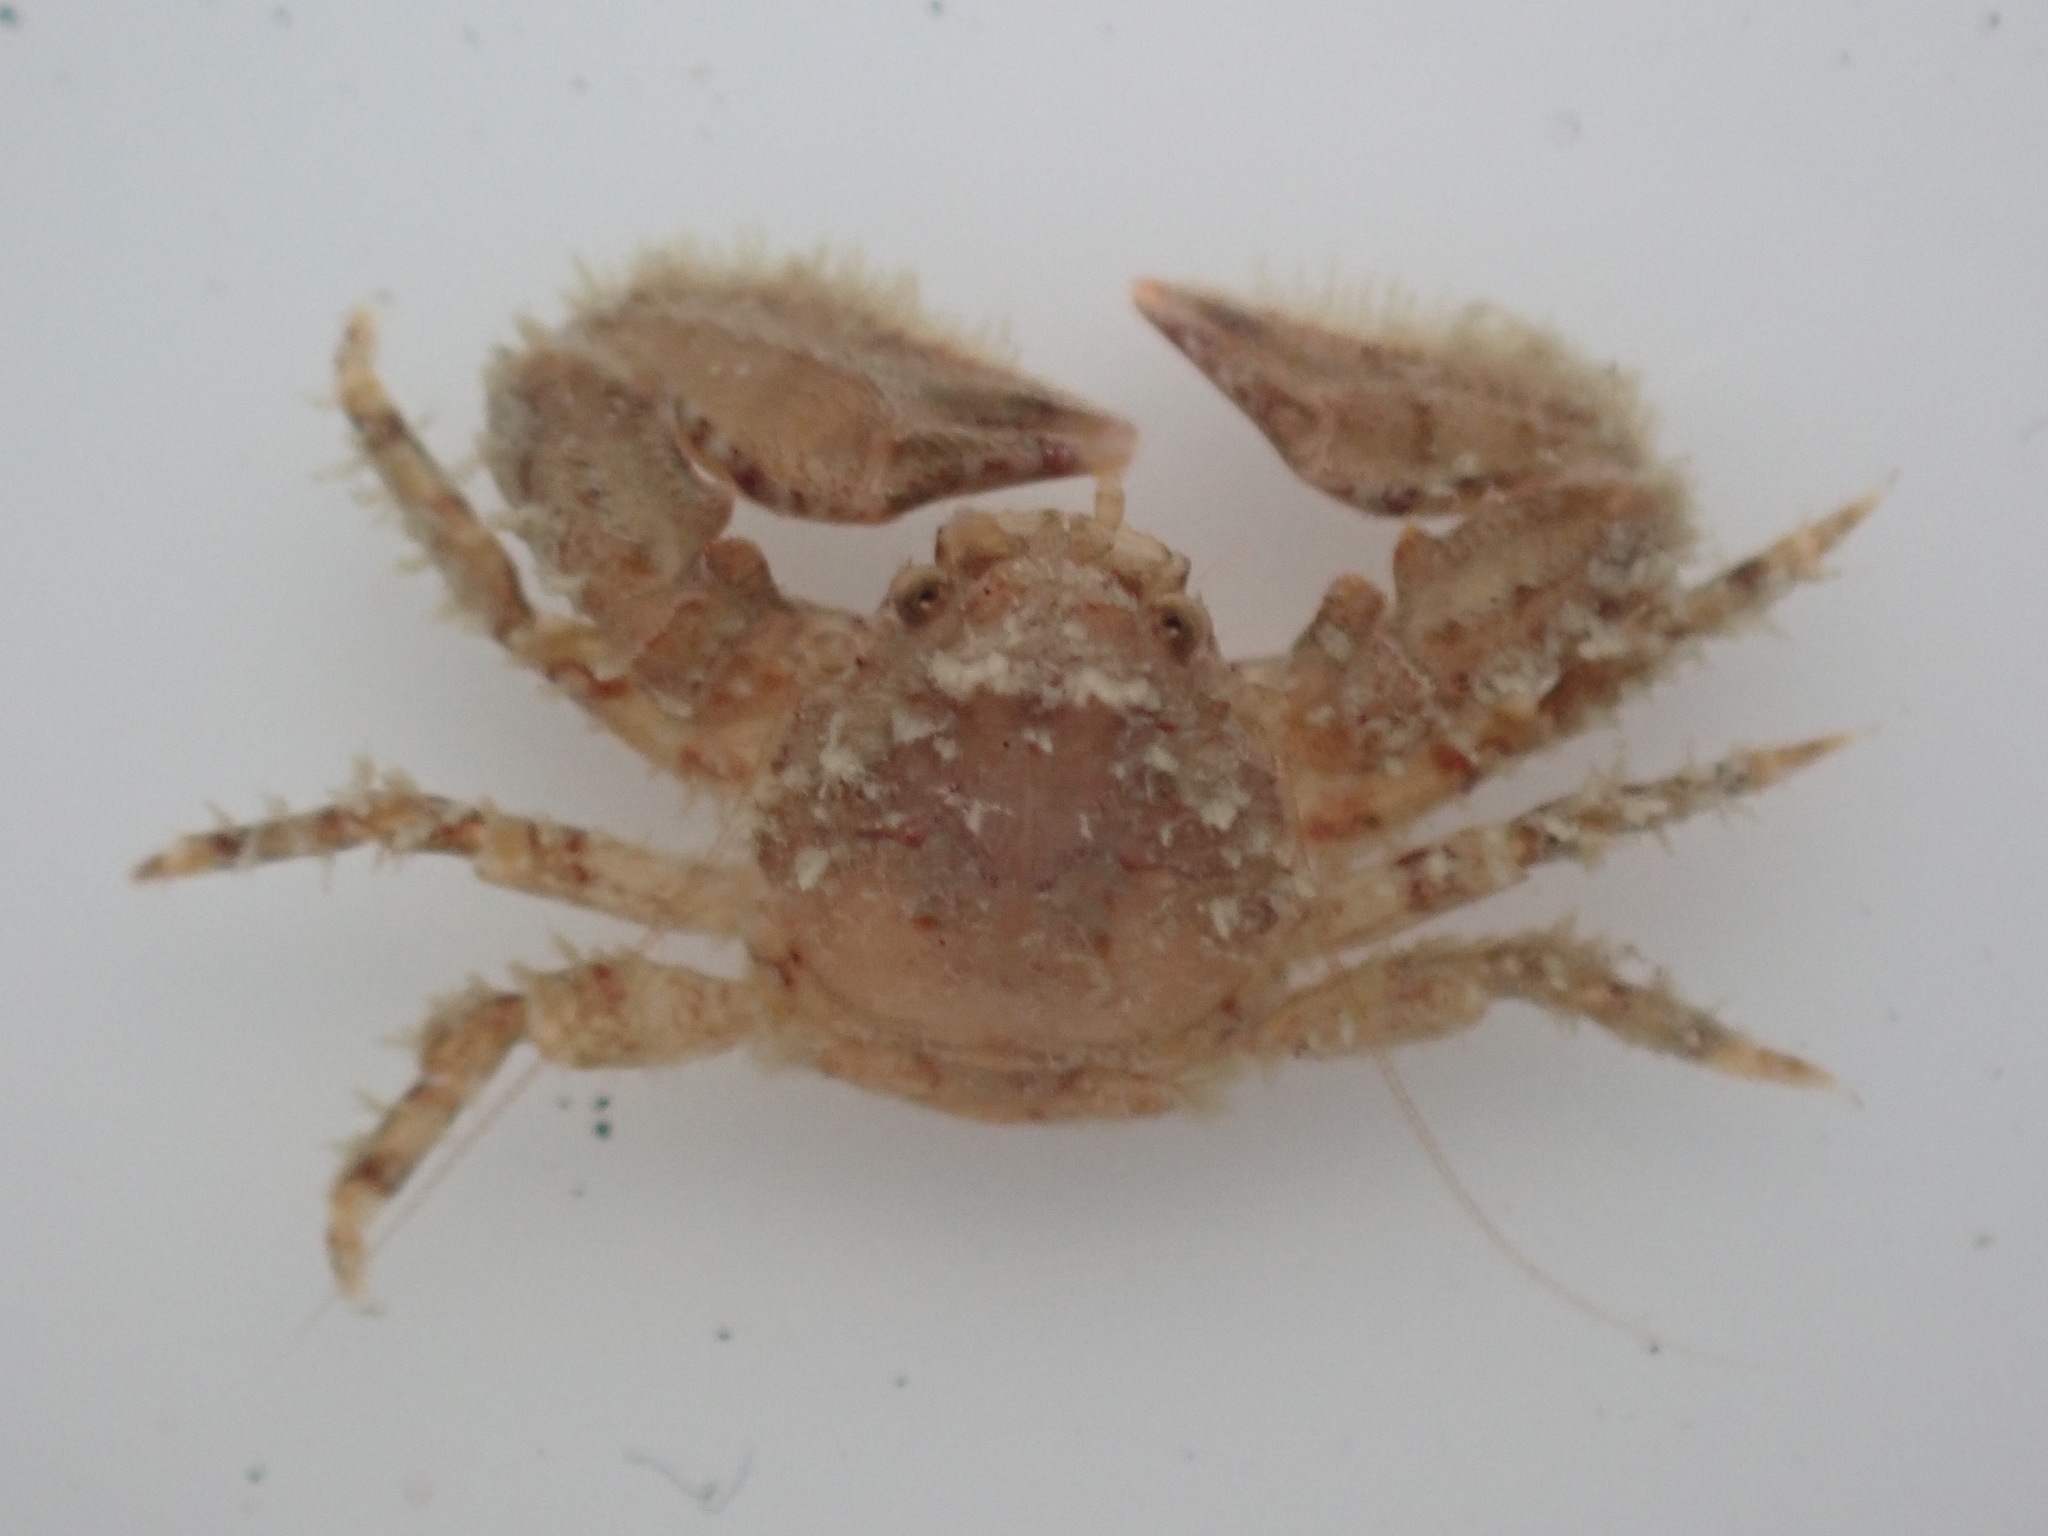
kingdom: Animalia
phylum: Arthropoda
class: Malacostraca
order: Decapoda
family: Porcellanidae
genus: Petrolisthes
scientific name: Petrolisthes novaezelandiae
